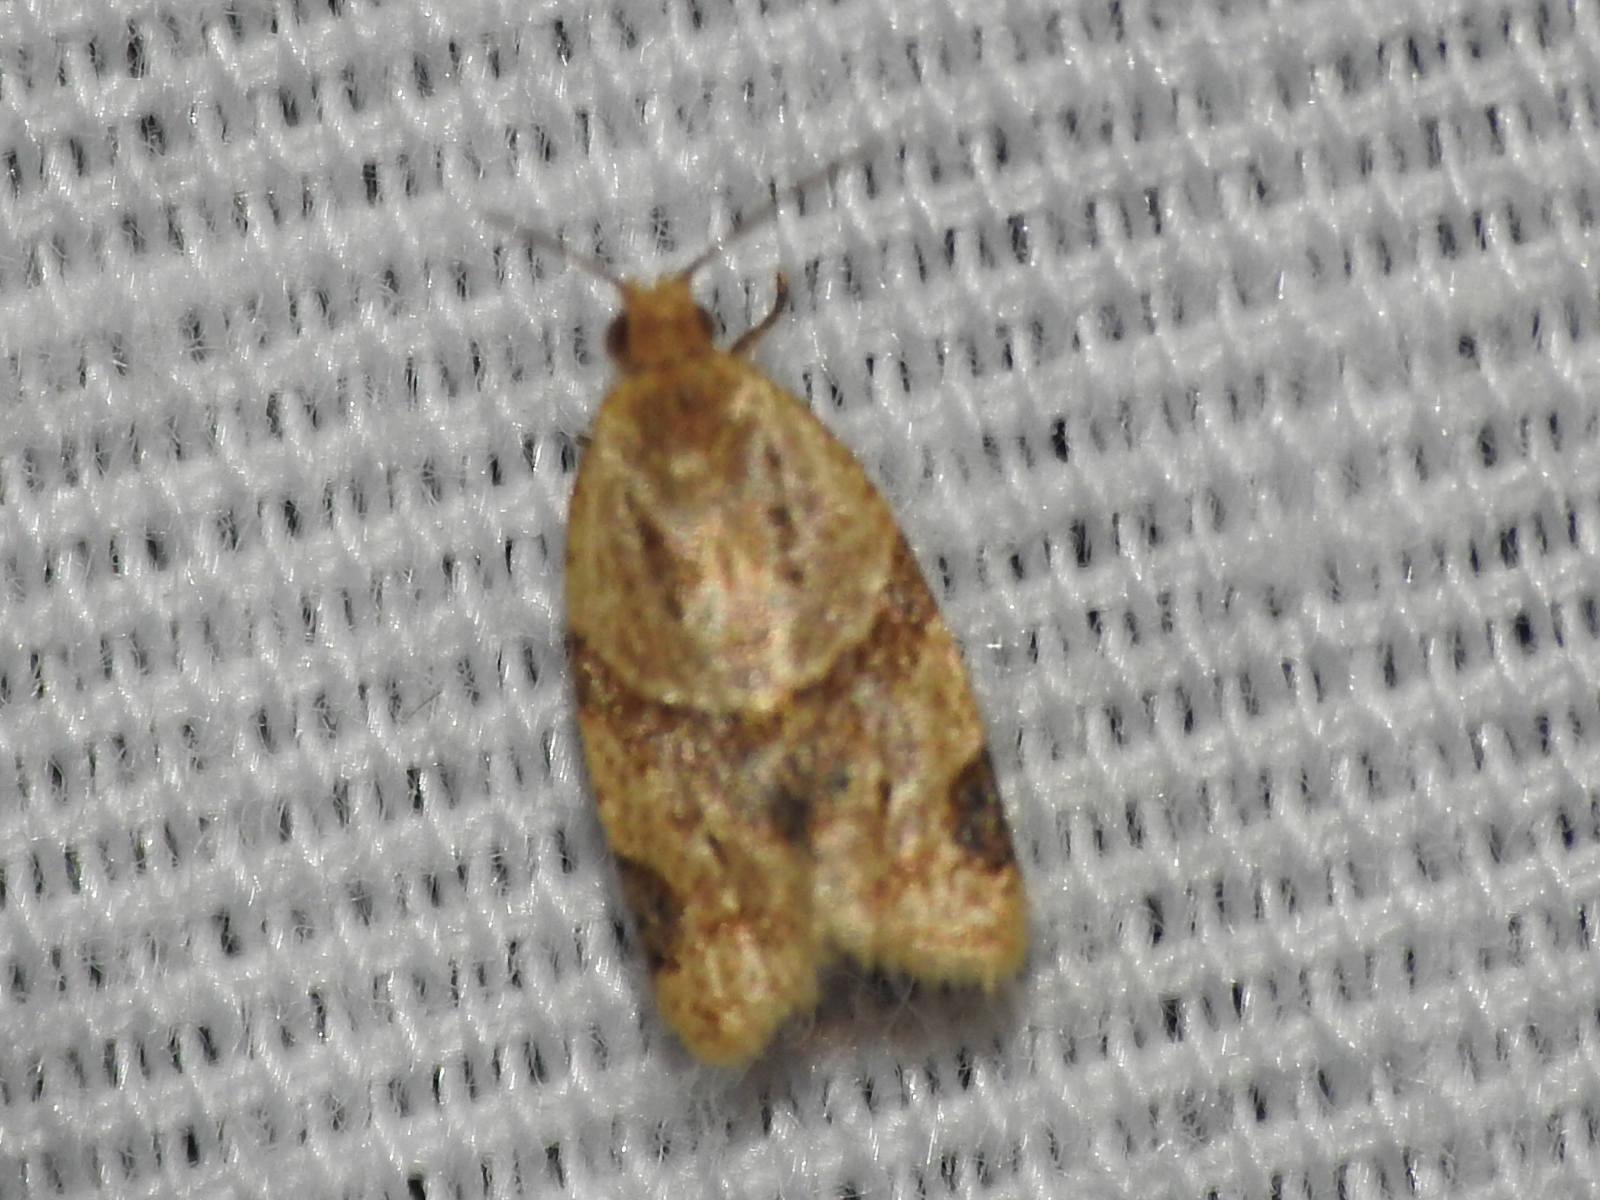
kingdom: Animalia
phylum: Arthropoda
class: Insecta
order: Lepidoptera
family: Tortricidae
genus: Clepsis
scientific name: Clepsis peritana
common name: Garden tortrix
